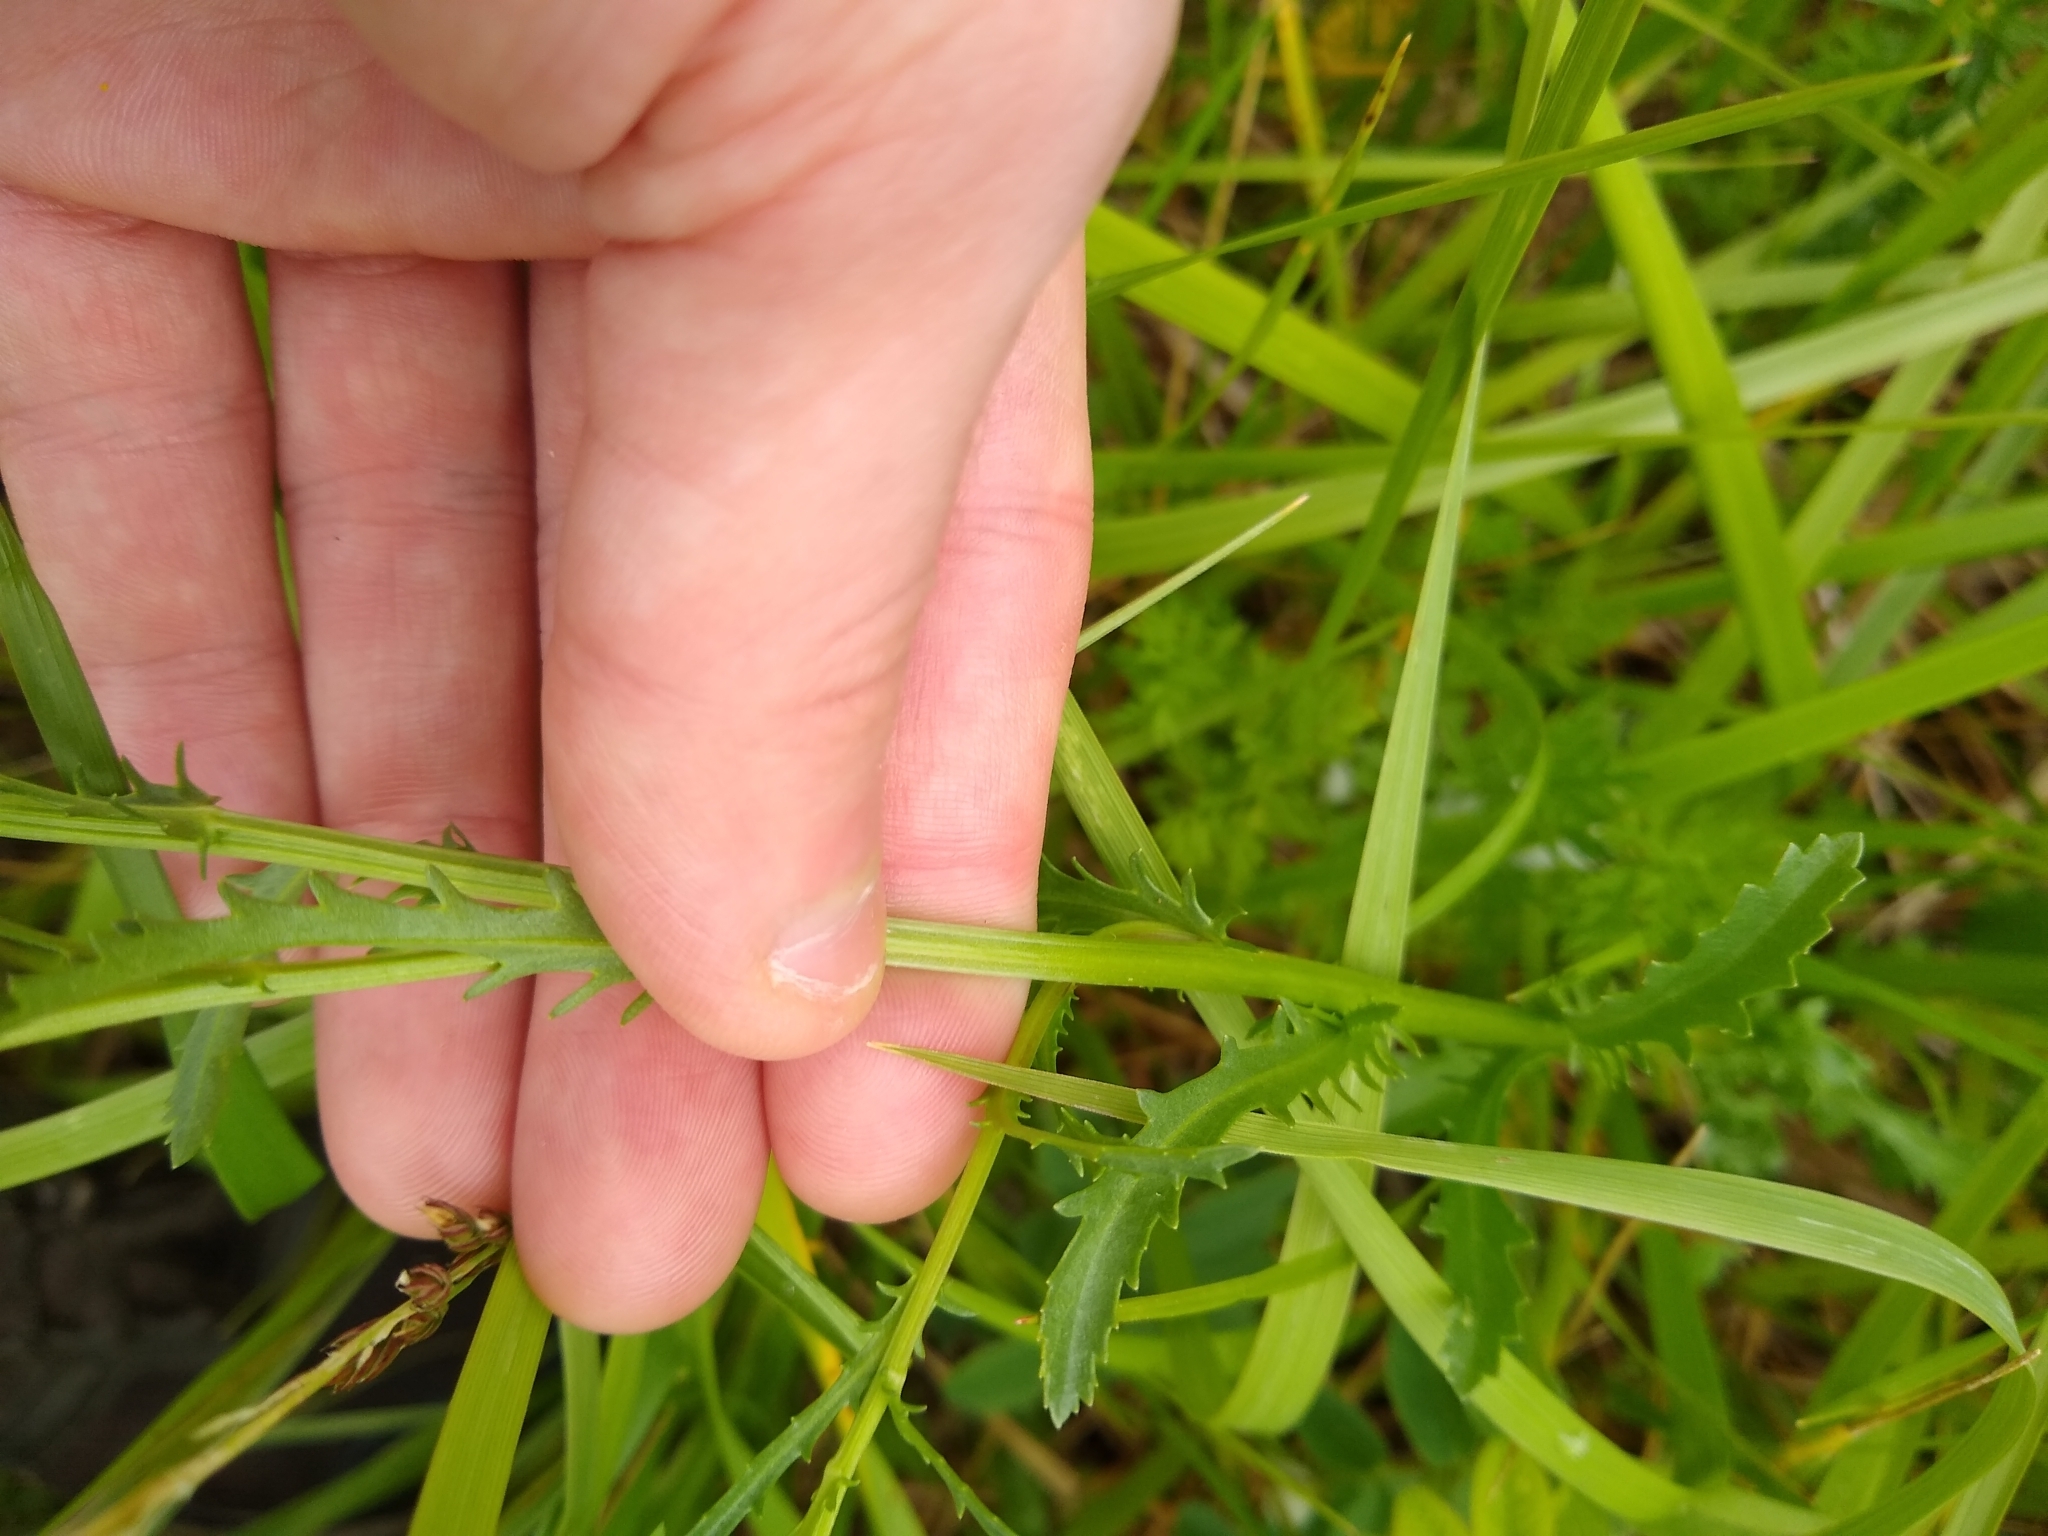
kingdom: Plantae
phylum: Tracheophyta
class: Magnoliopsida
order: Asterales
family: Asteraceae
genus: Leucanthemum
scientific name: Leucanthemum vulgare
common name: Oxeye daisy
